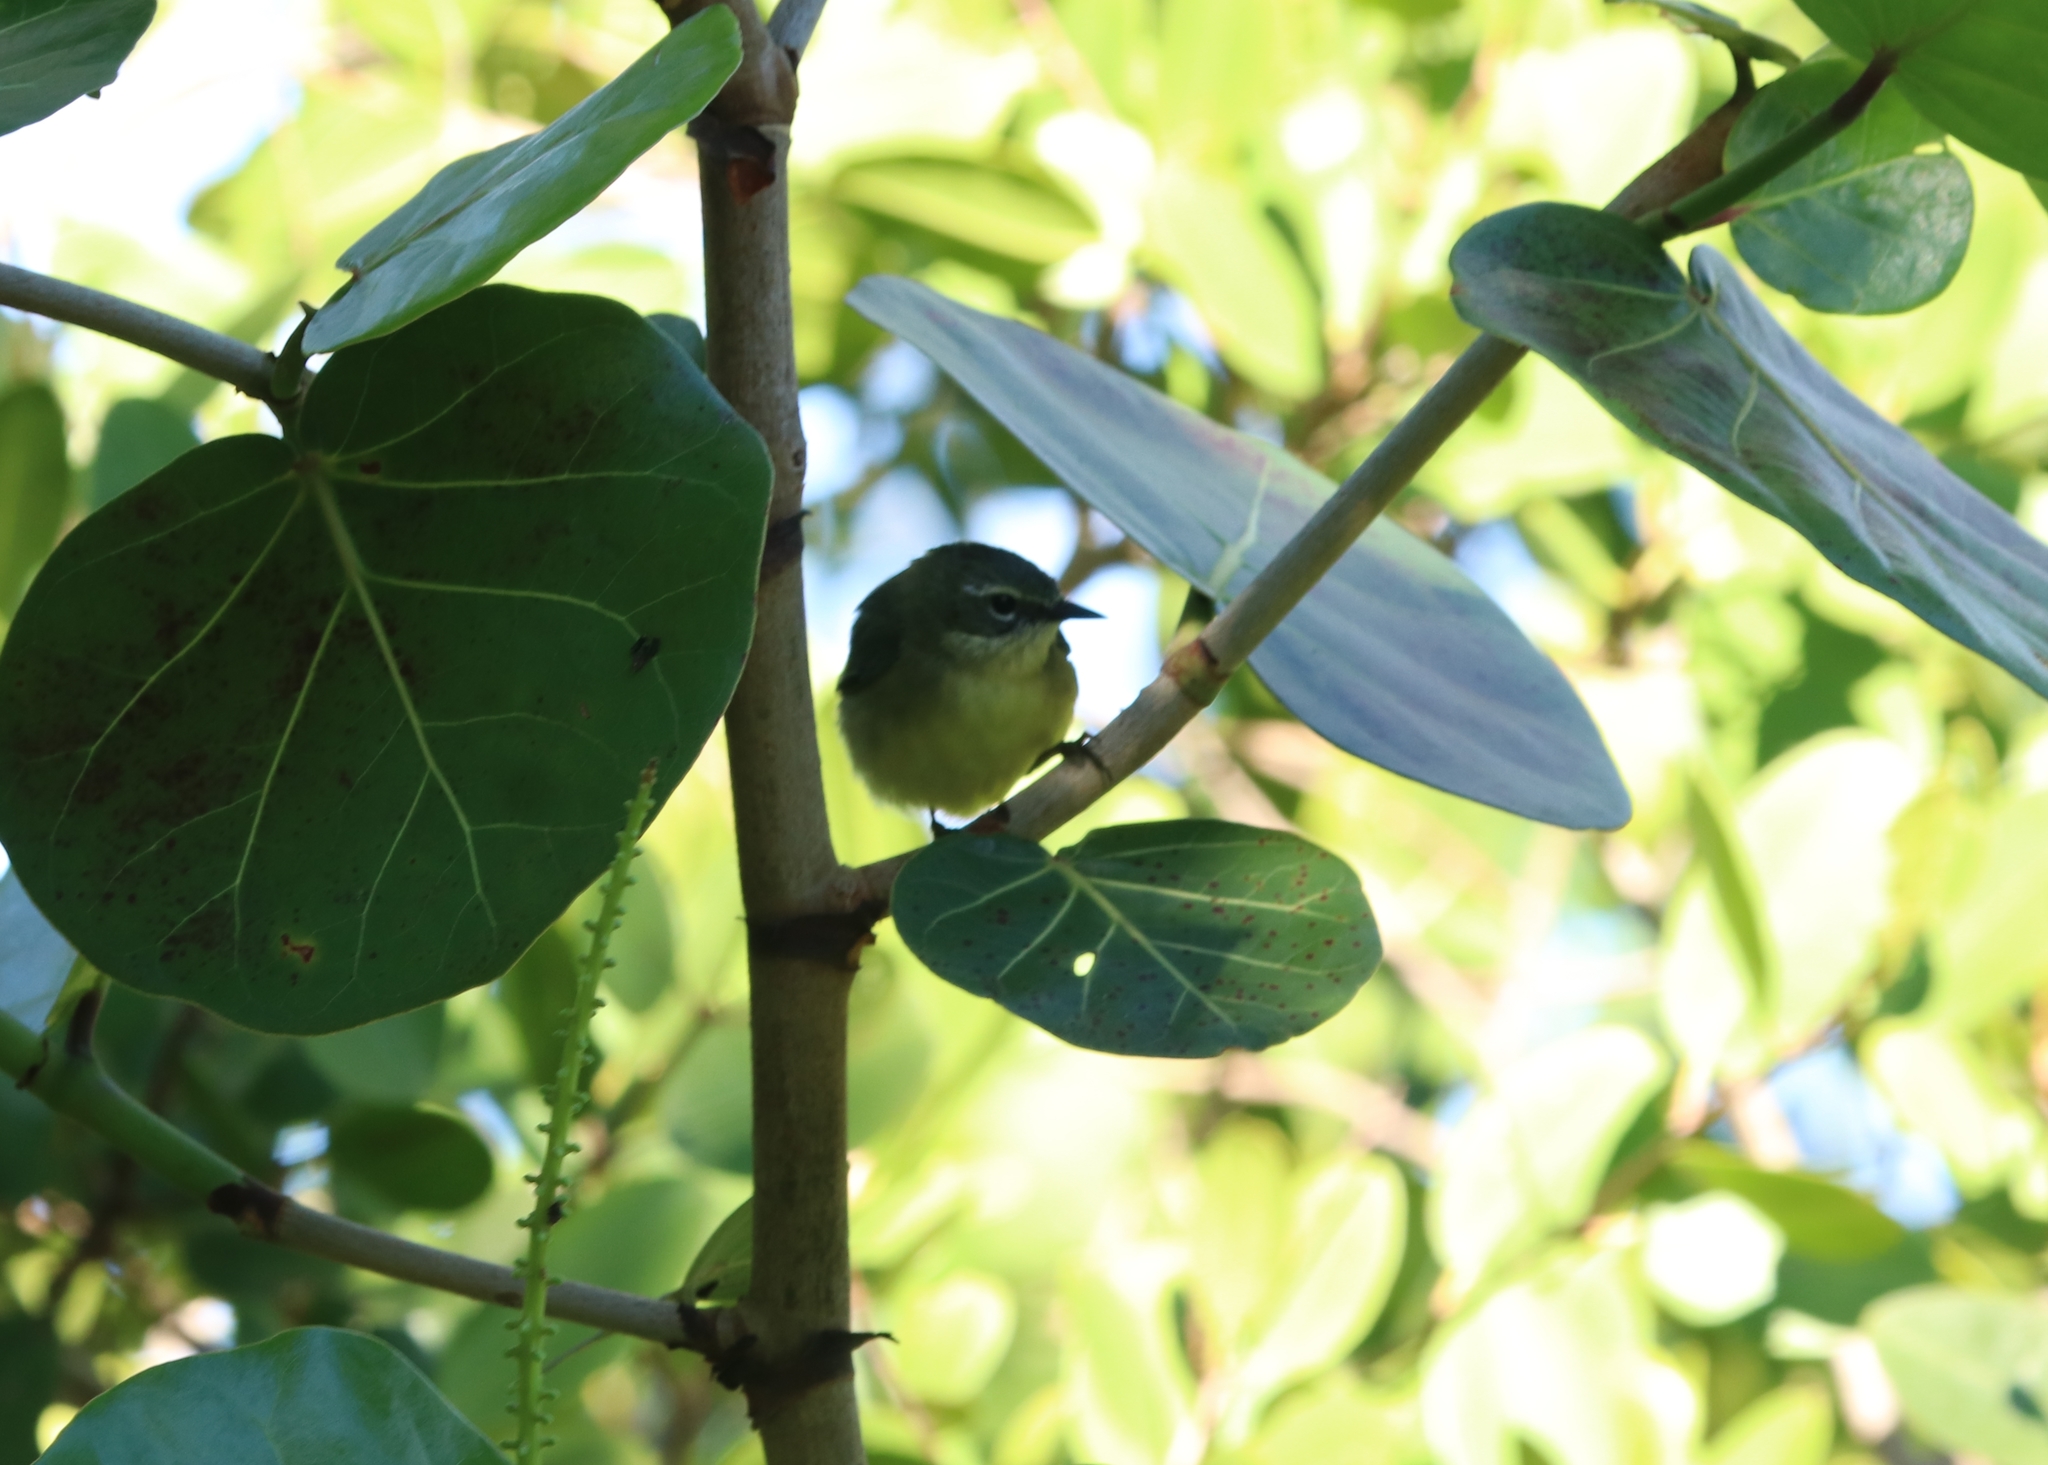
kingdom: Animalia
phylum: Chordata
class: Aves
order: Passeriformes
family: Parulidae
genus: Setophaga
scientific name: Setophaga caerulescens
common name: Black-throated blue warbler
